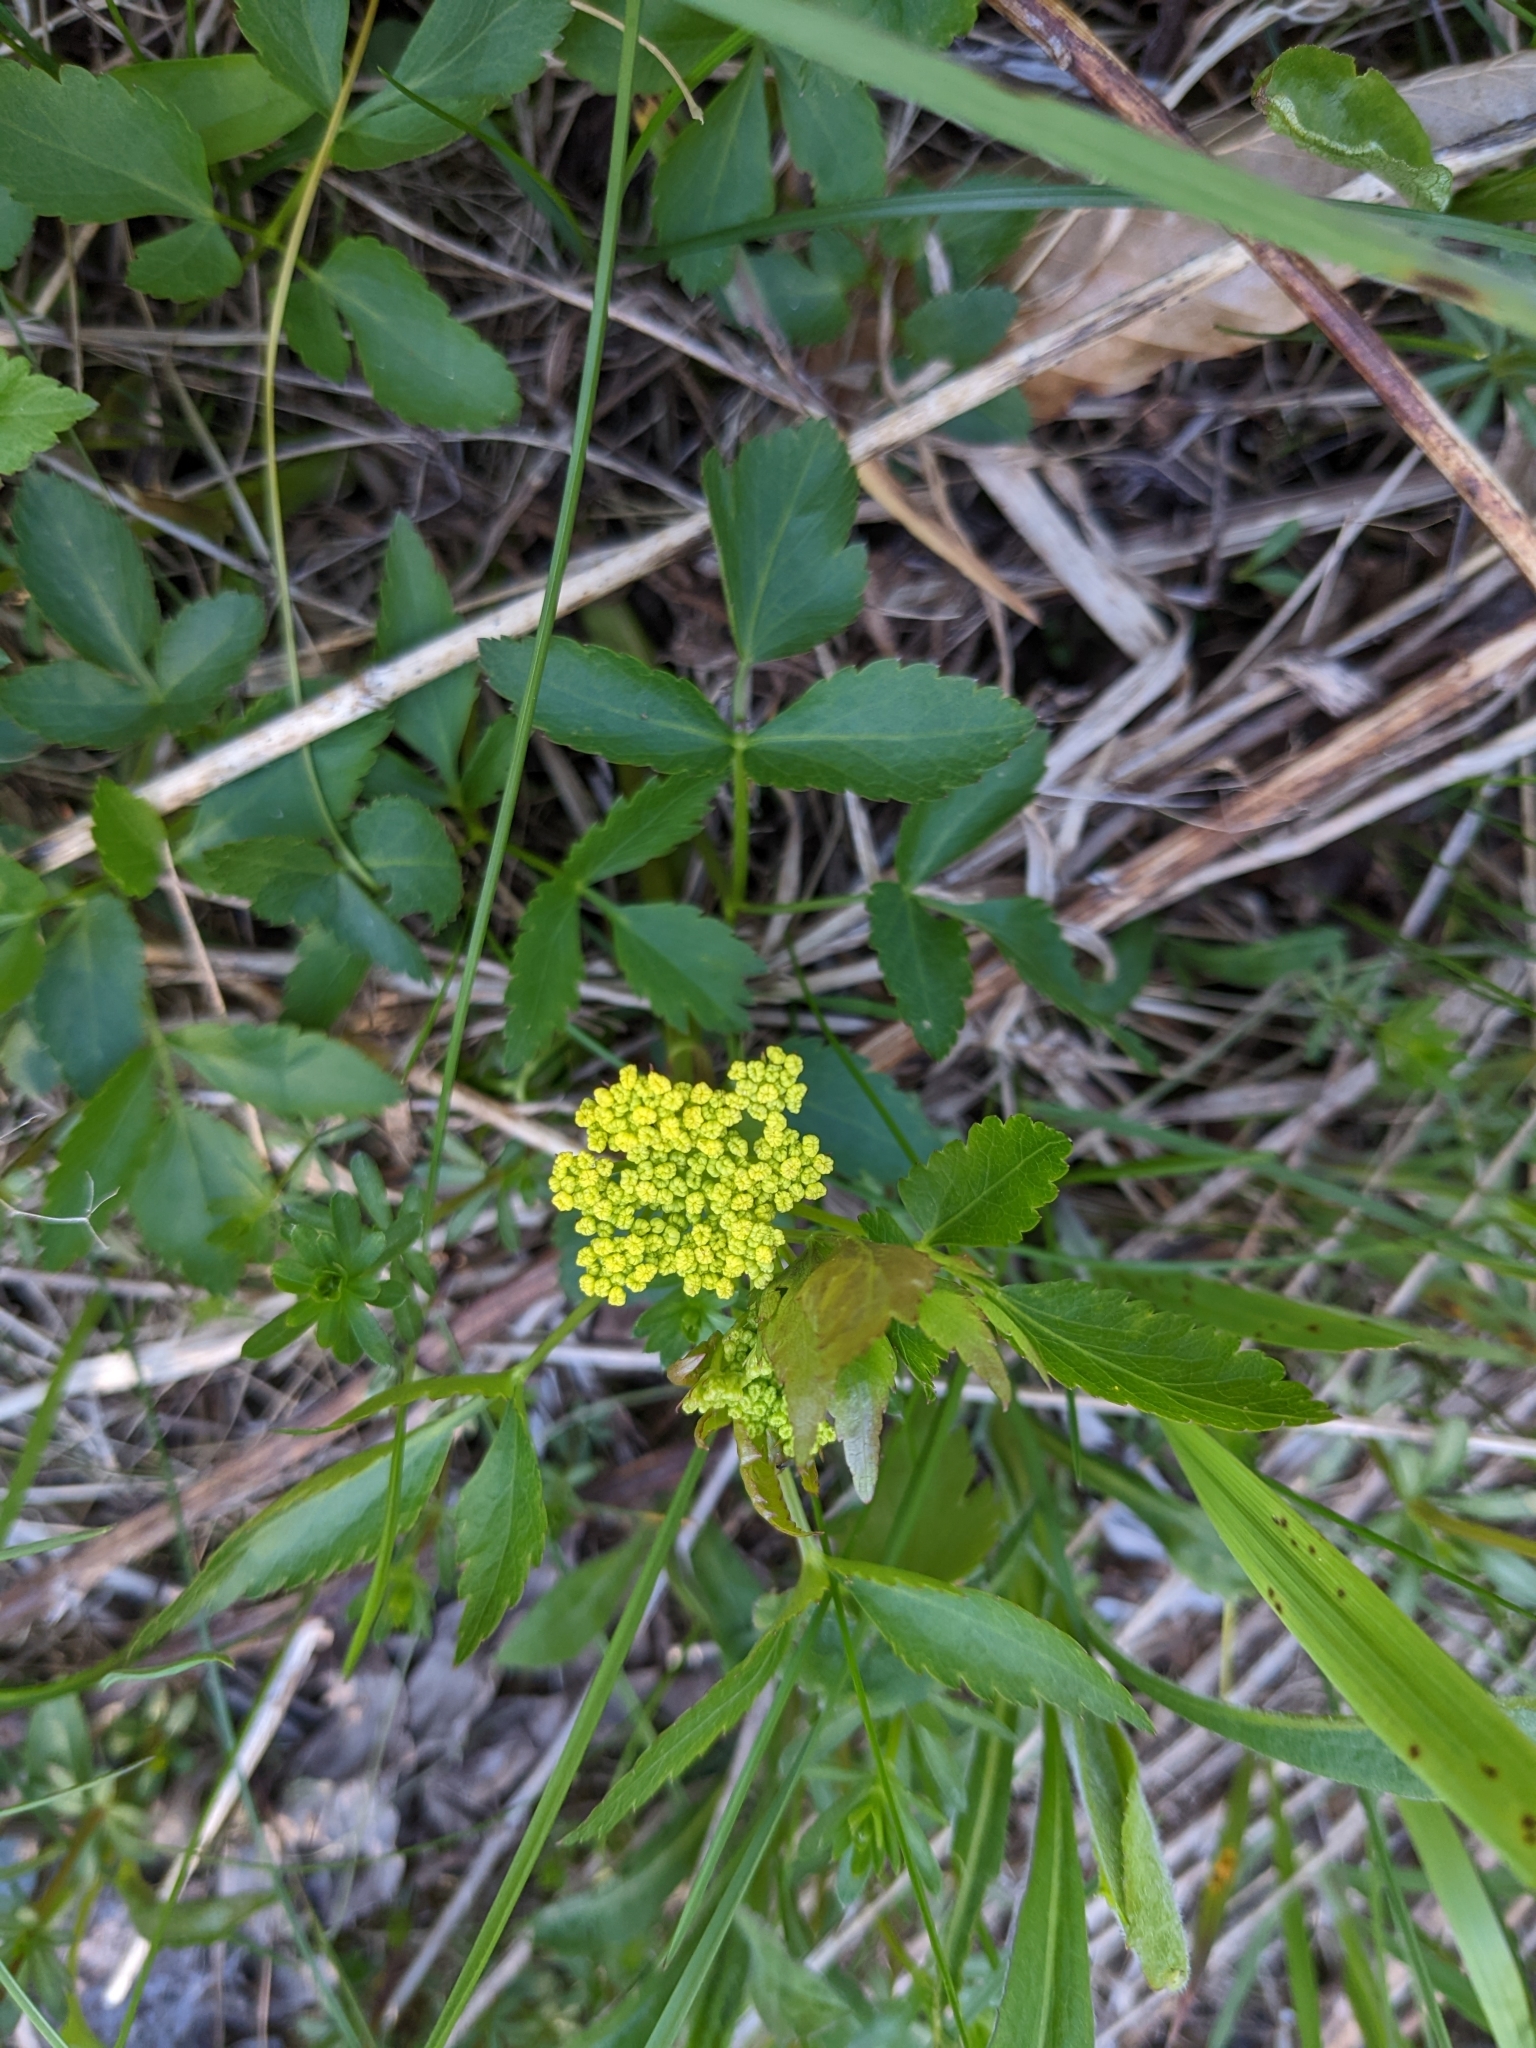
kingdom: Plantae
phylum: Tracheophyta
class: Magnoliopsida
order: Apiales
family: Apiaceae
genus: Zizia
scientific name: Zizia aurea
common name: Golden alexanders
